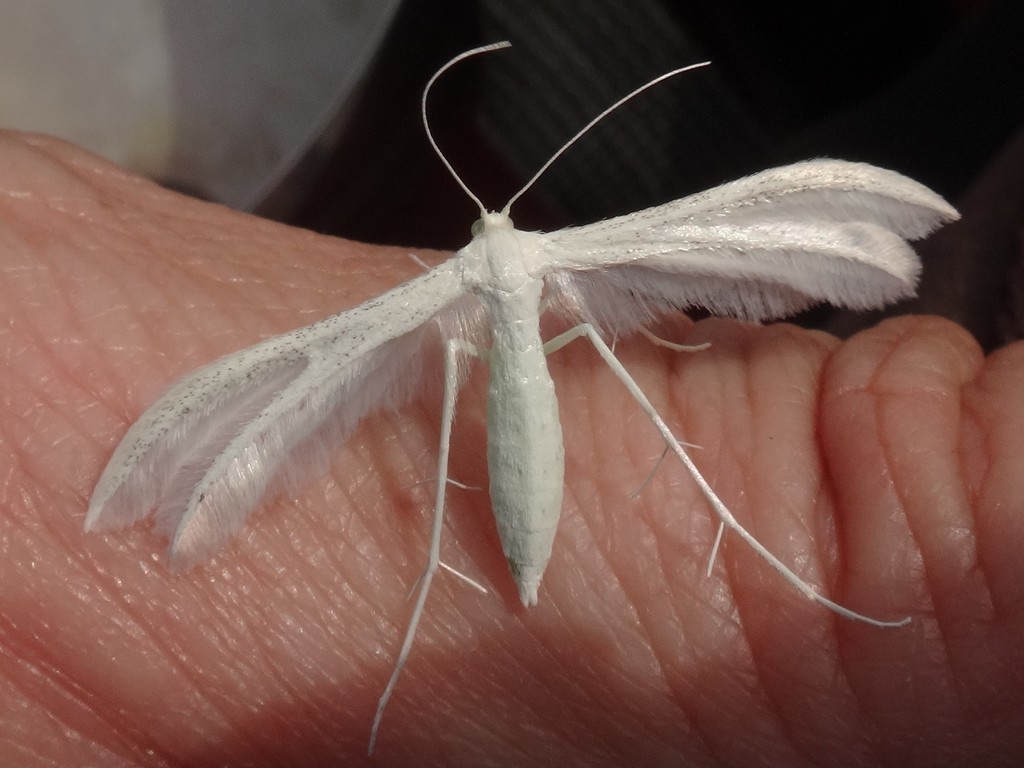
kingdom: Animalia
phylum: Arthropoda
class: Insecta
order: Lepidoptera
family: Pterophoridae
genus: Pterophorus
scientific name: Pterophorus pentadactyla
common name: White plume moth
